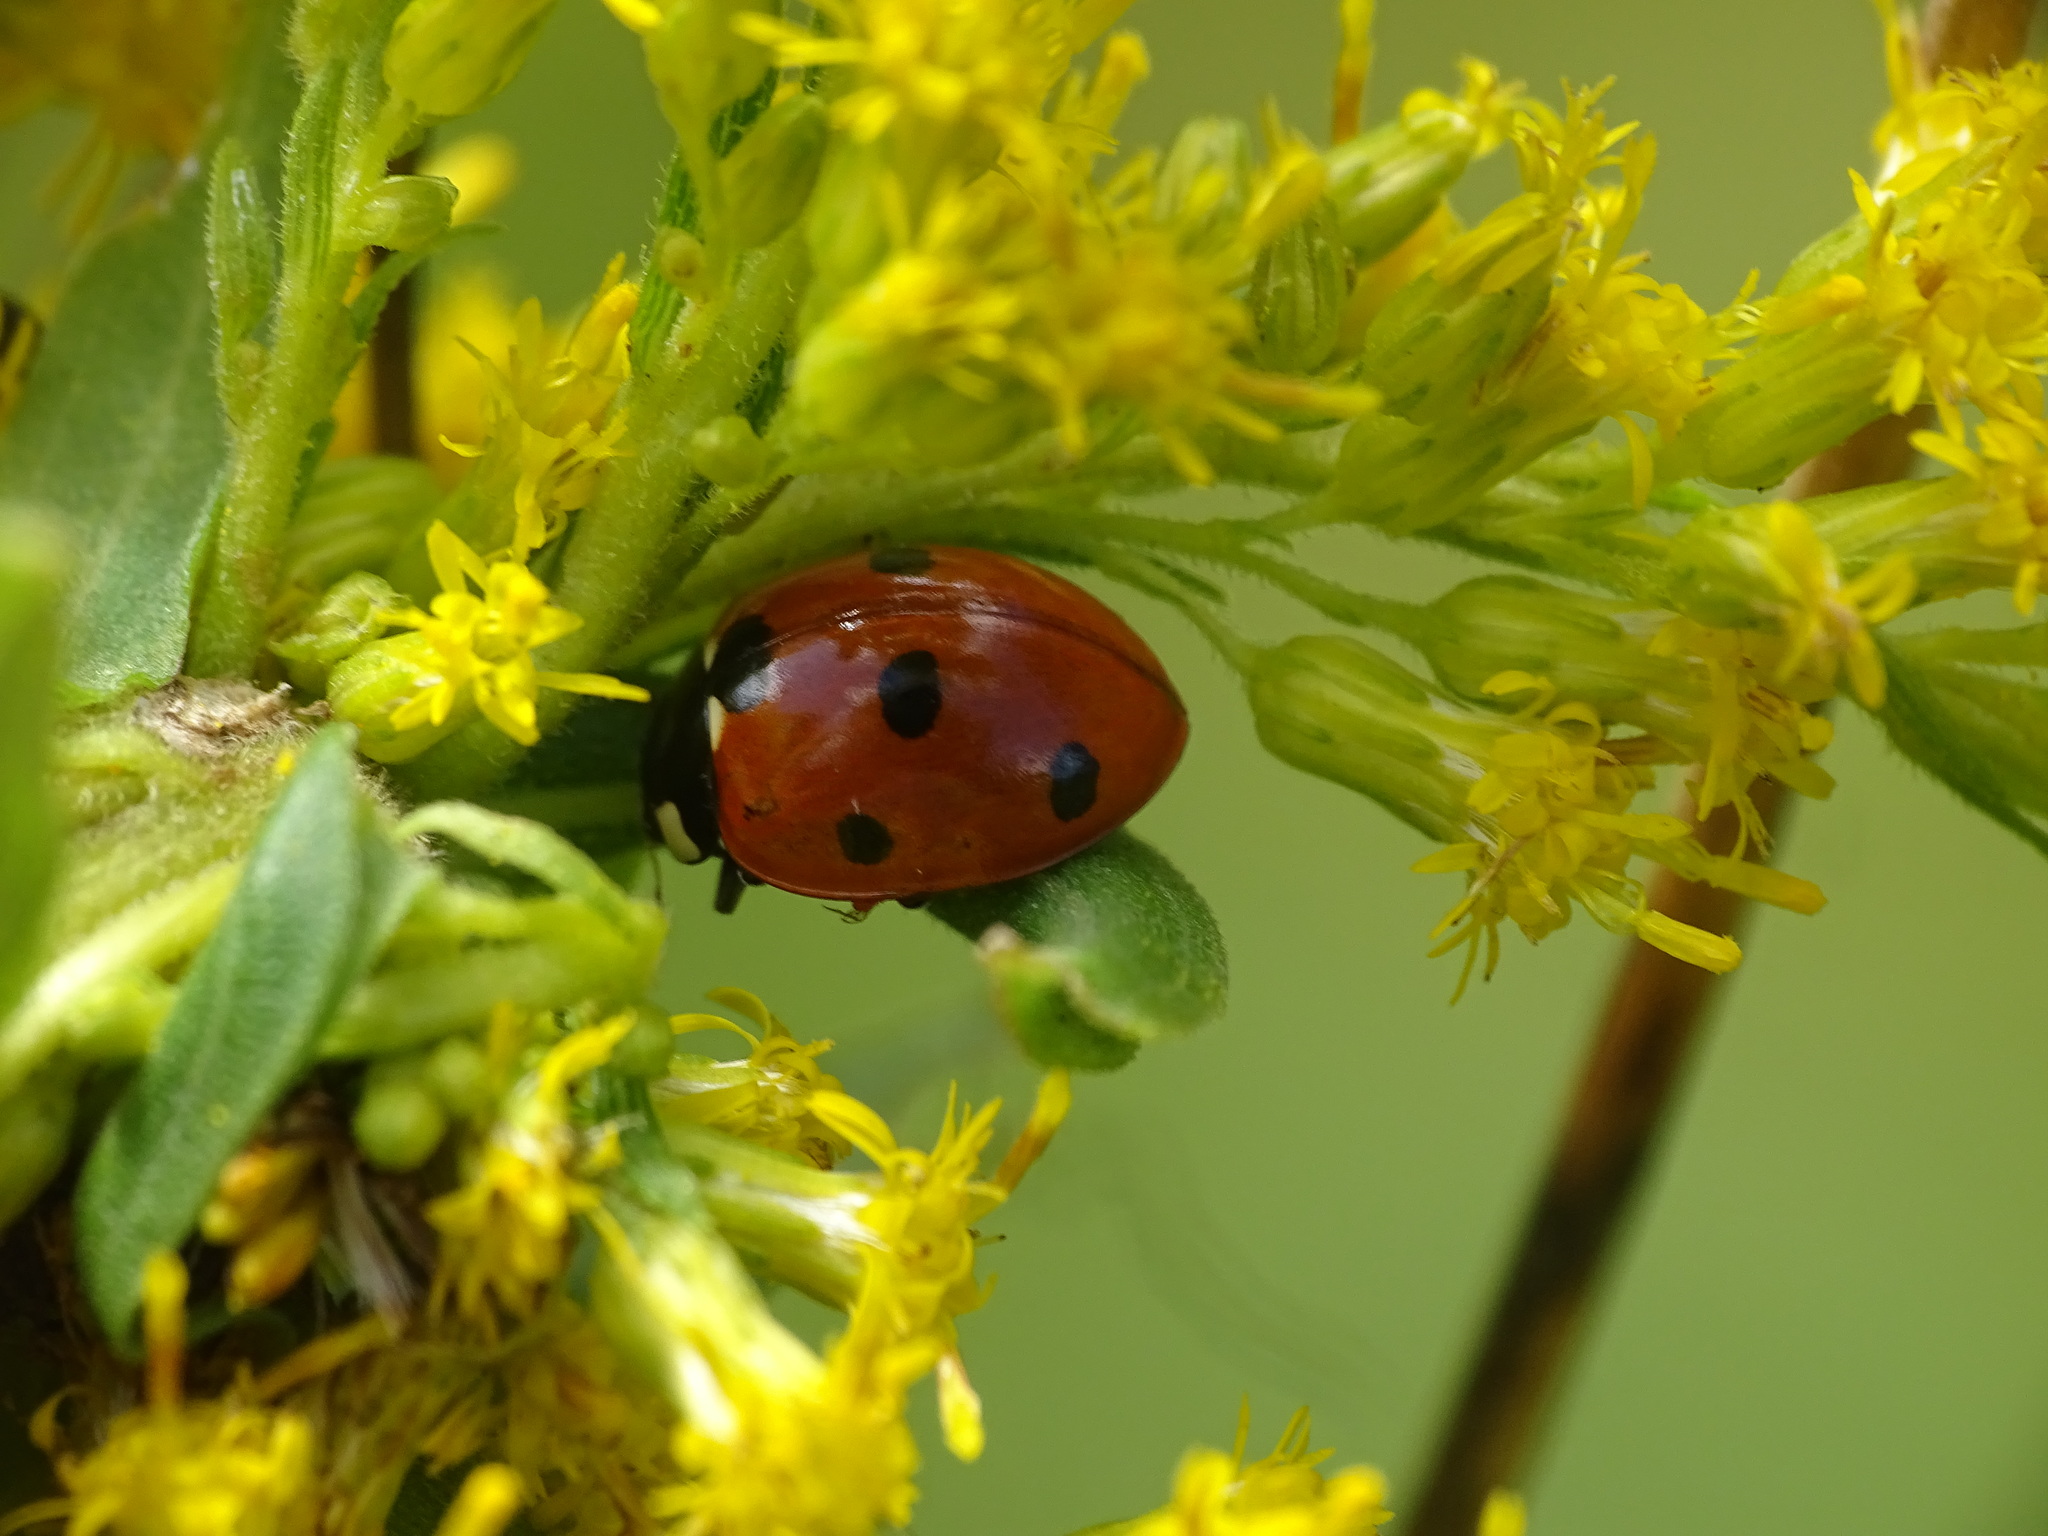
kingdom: Animalia
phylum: Arthropoda
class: Insecta
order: Coleoptera
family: Coccinellidae
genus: Coccinella
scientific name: Coccinella septempunctata
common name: Sevenspotted lady beetle
